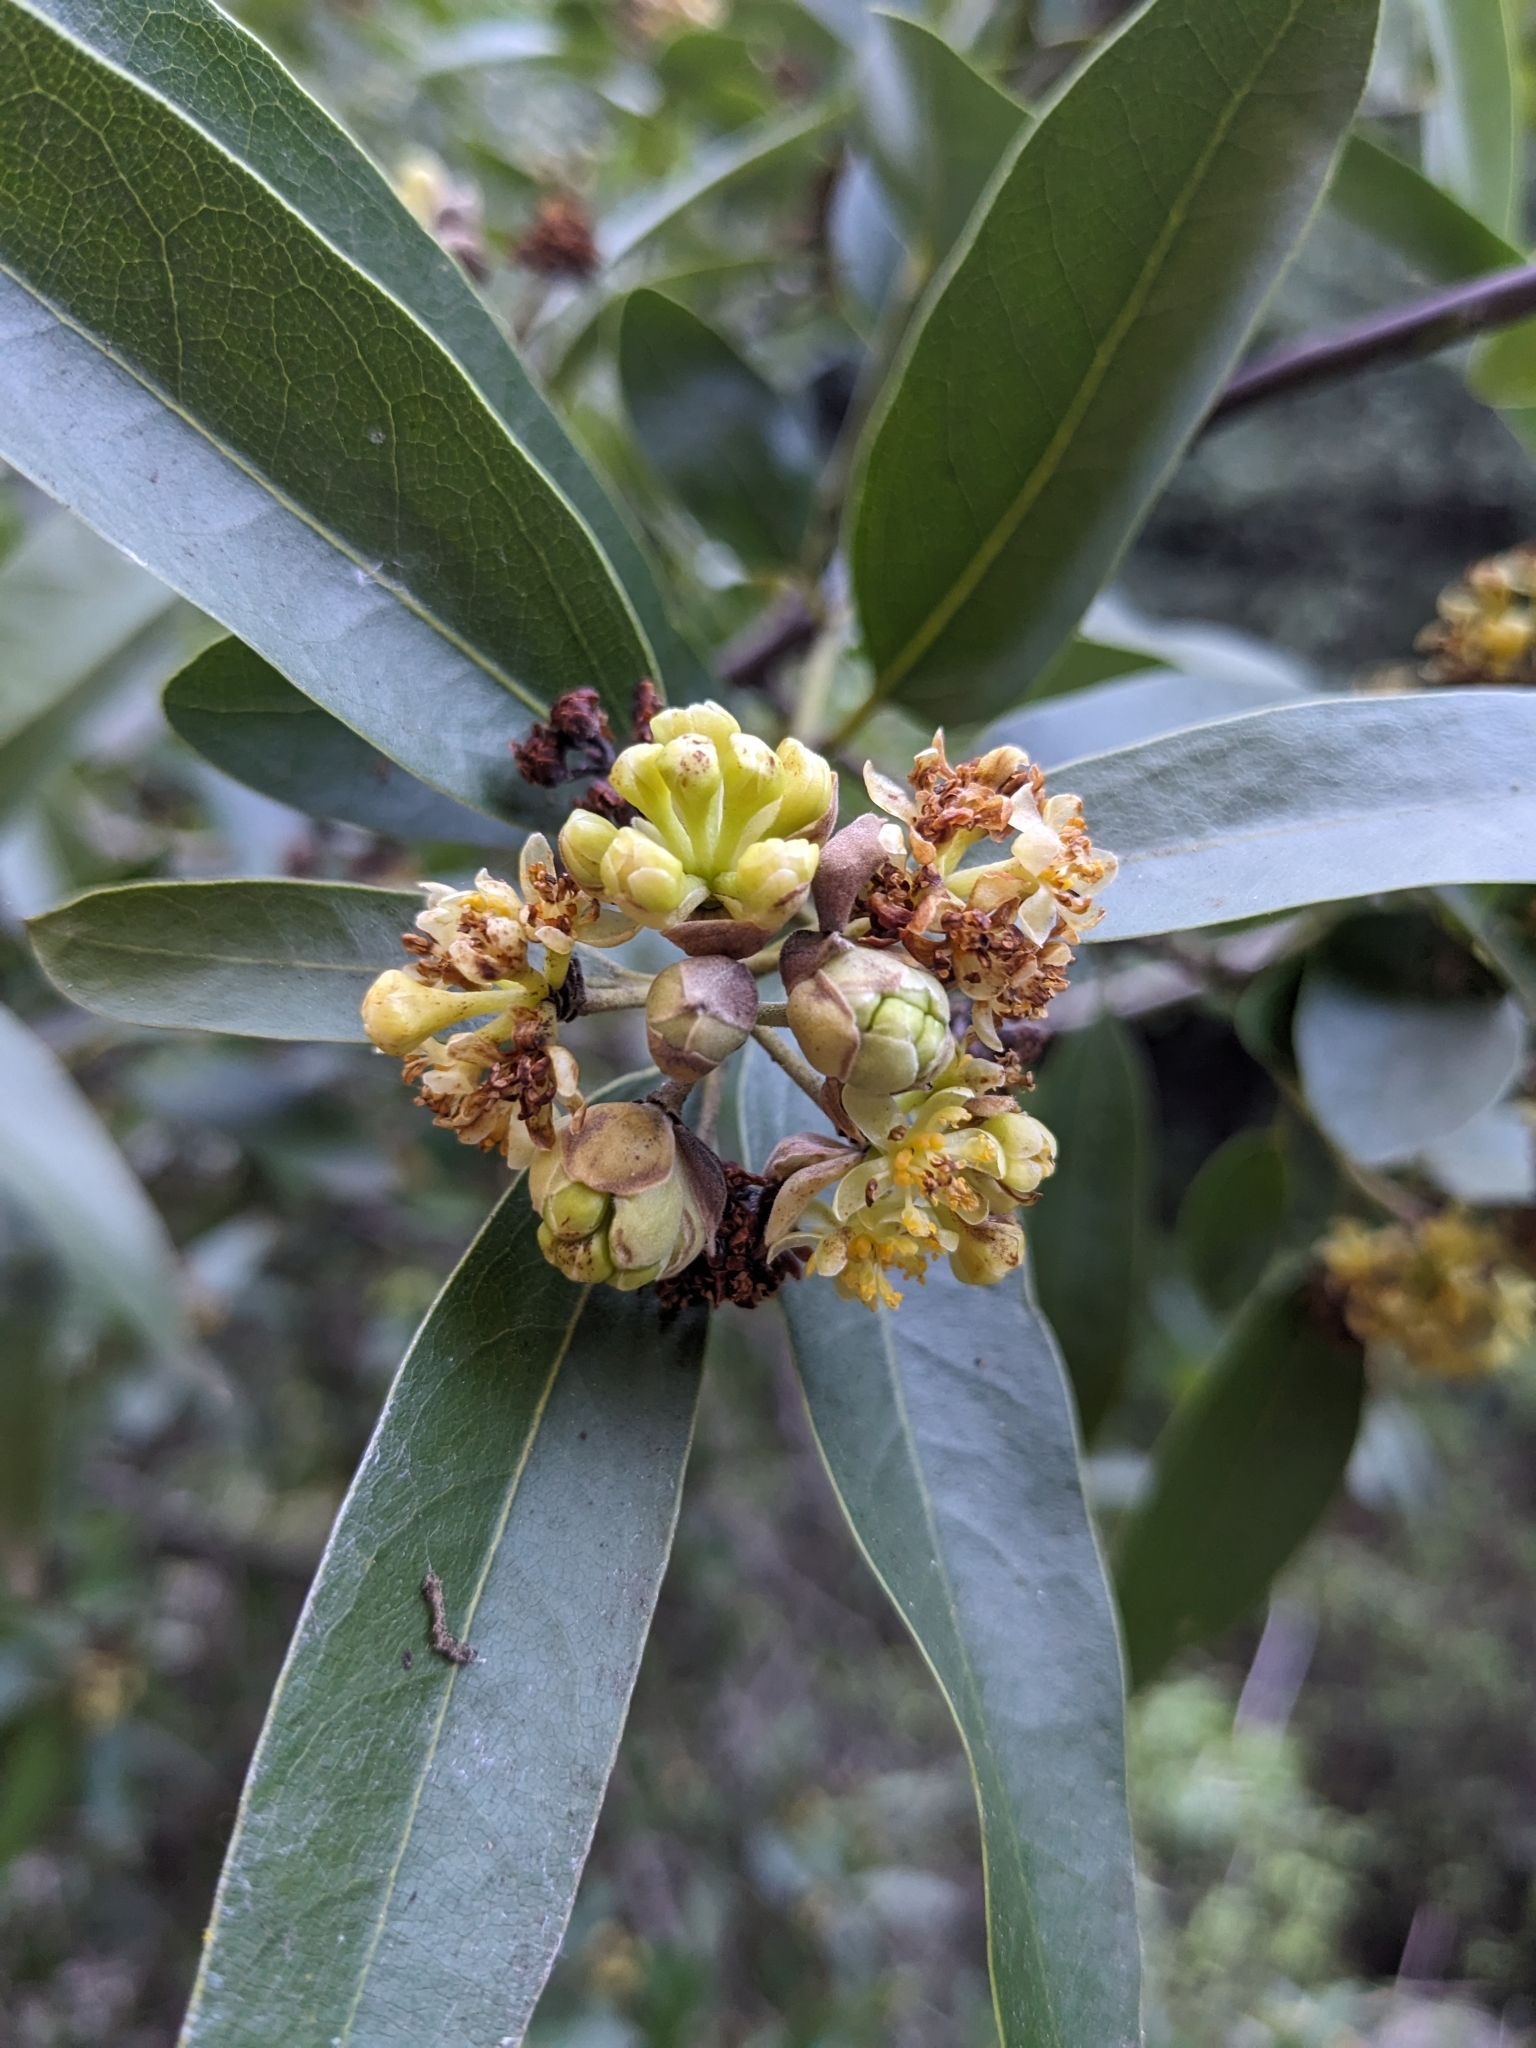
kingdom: Plantae
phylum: Tracheophyta
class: Magnoliopsida
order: Laurales
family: Lauraceae
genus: Umbellularia
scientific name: Umbellularia californica
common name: California bay
